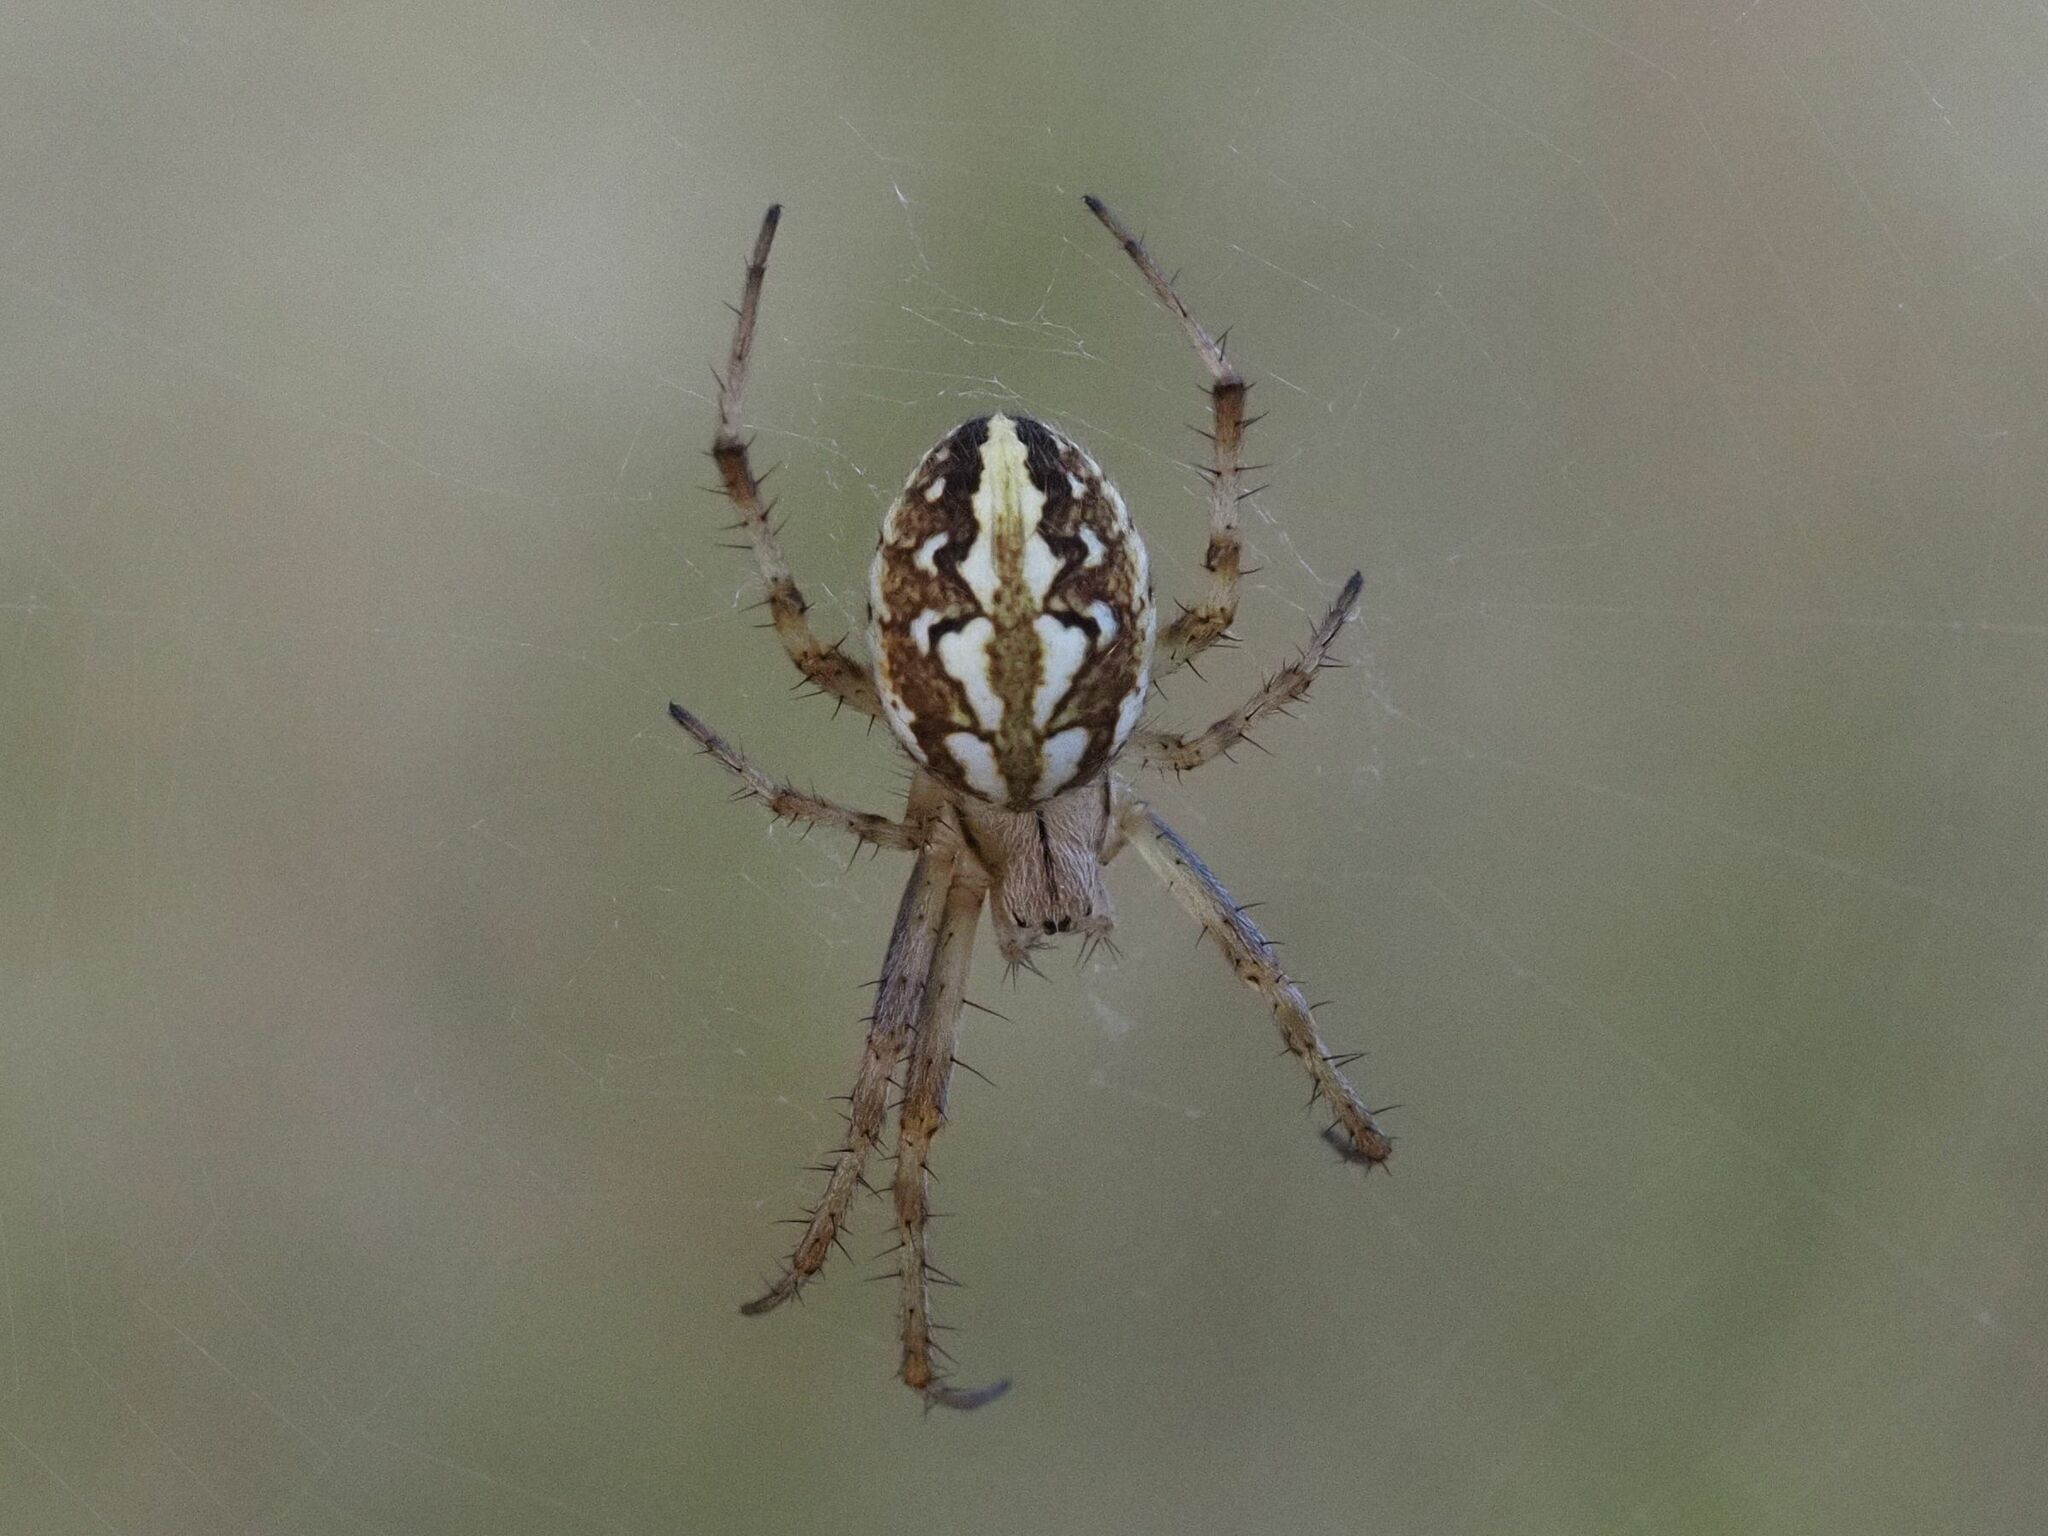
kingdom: Animalia
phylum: Arthropoda
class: Arachnida
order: Araneae
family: Araneidae
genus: Neoscona
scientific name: Neoscona adianta
